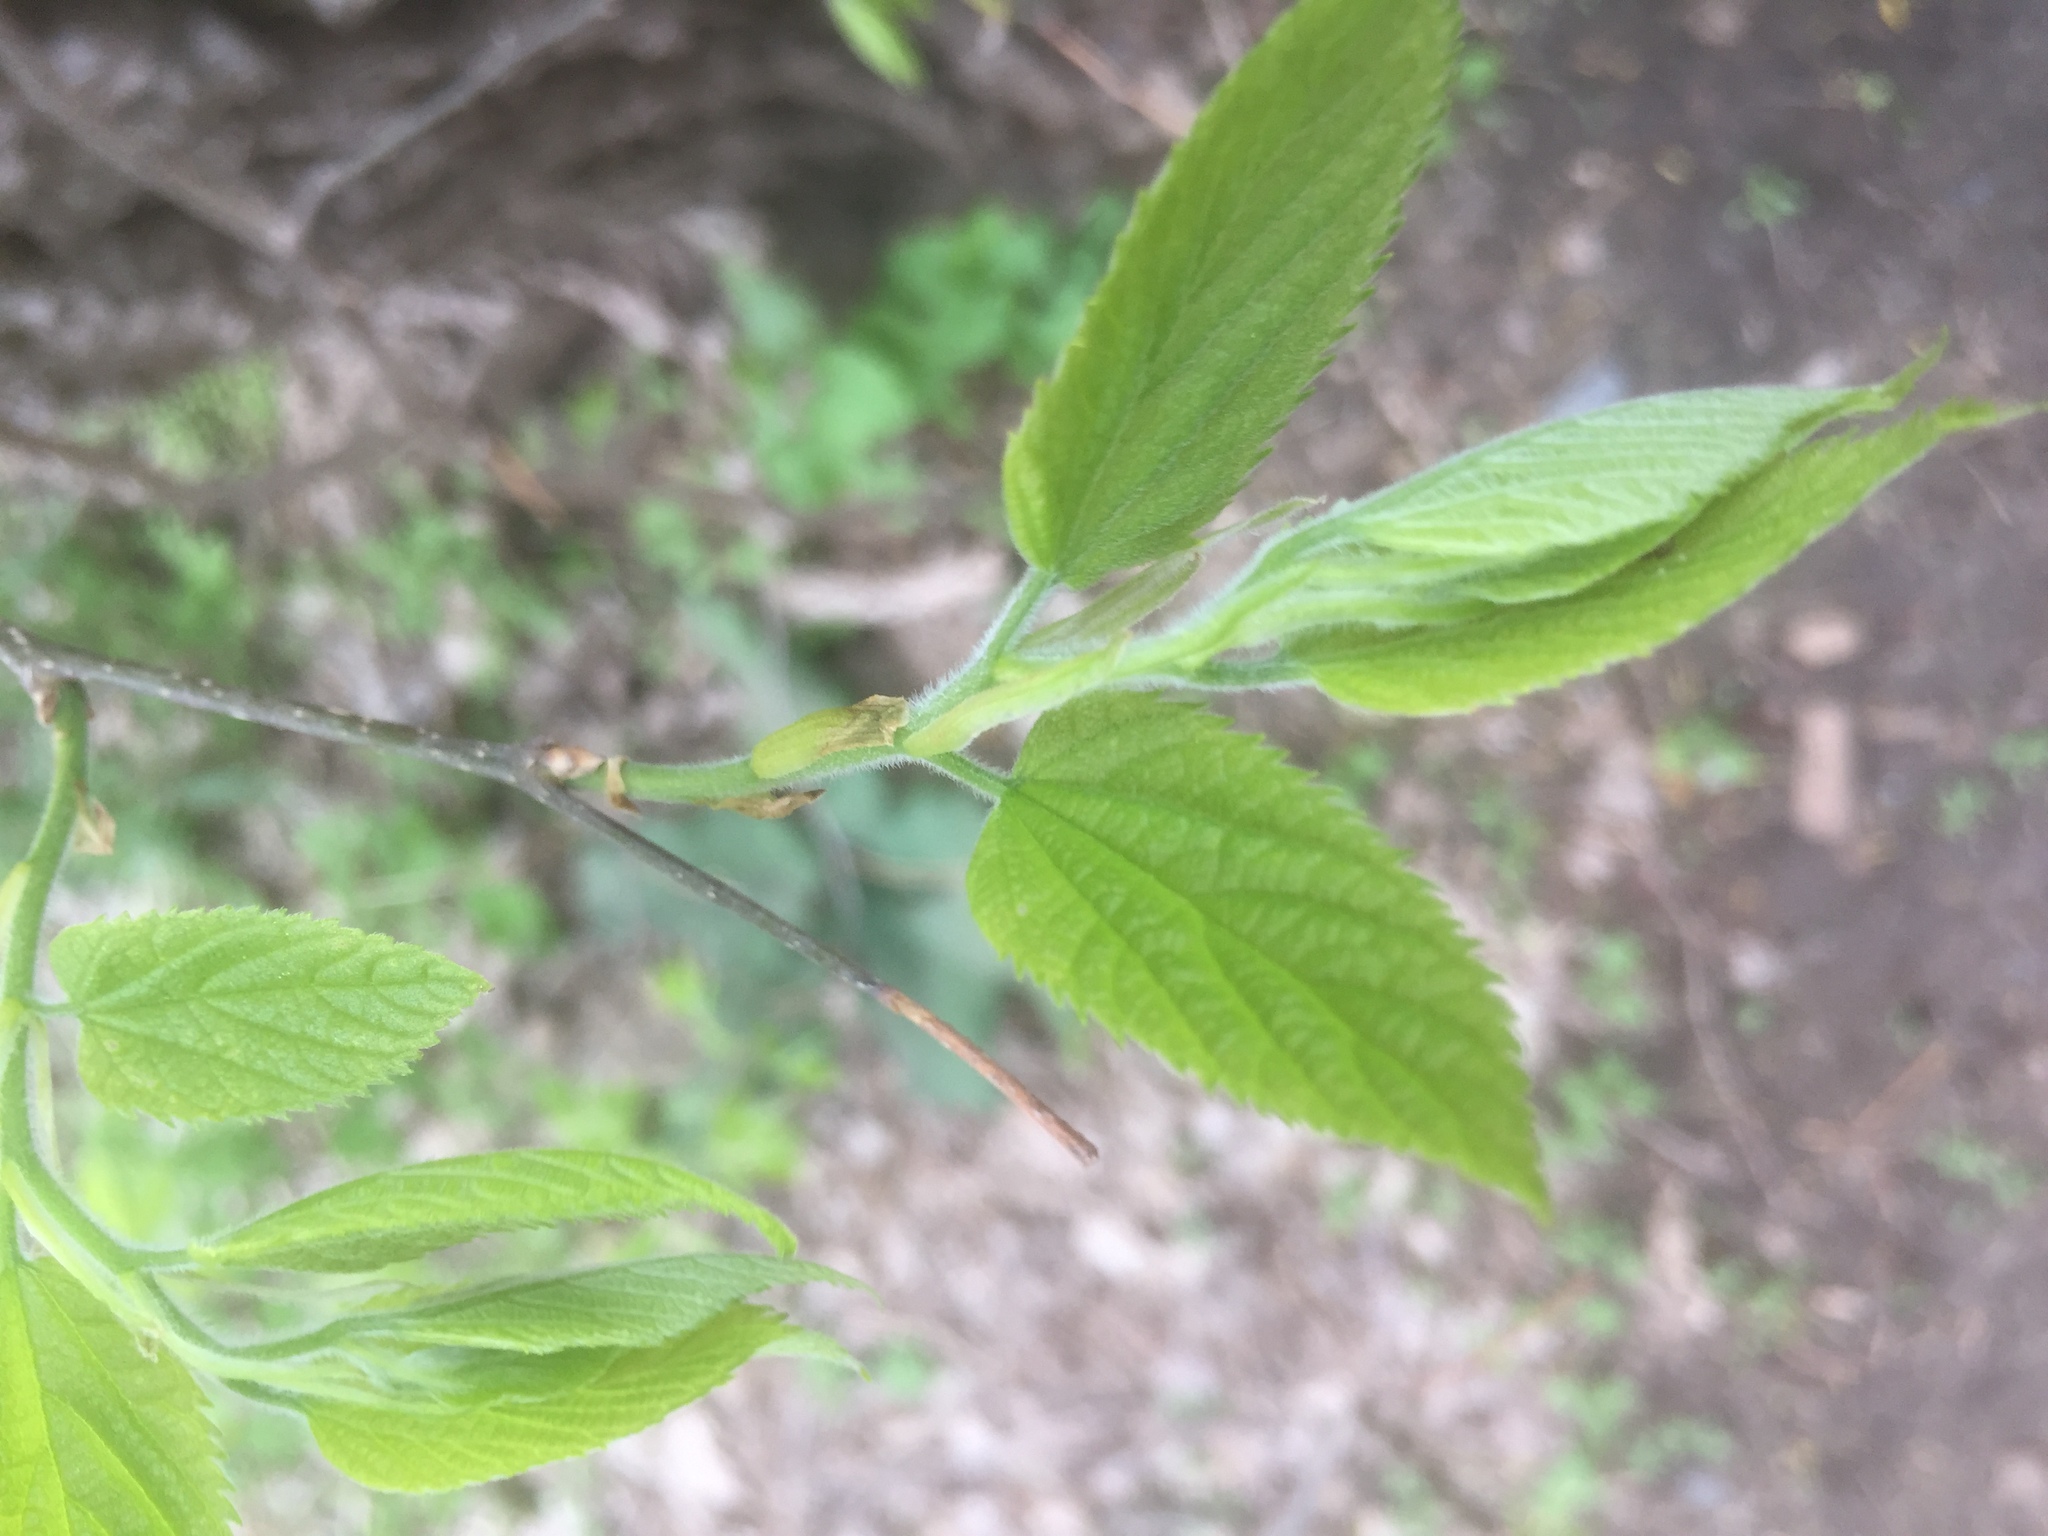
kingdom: Plantae
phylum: Tracheophyta
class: Magnoliopsida
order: Rosales
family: Cannabaceae
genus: Celtis
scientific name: Celtis occidentalis
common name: Common hackberry
